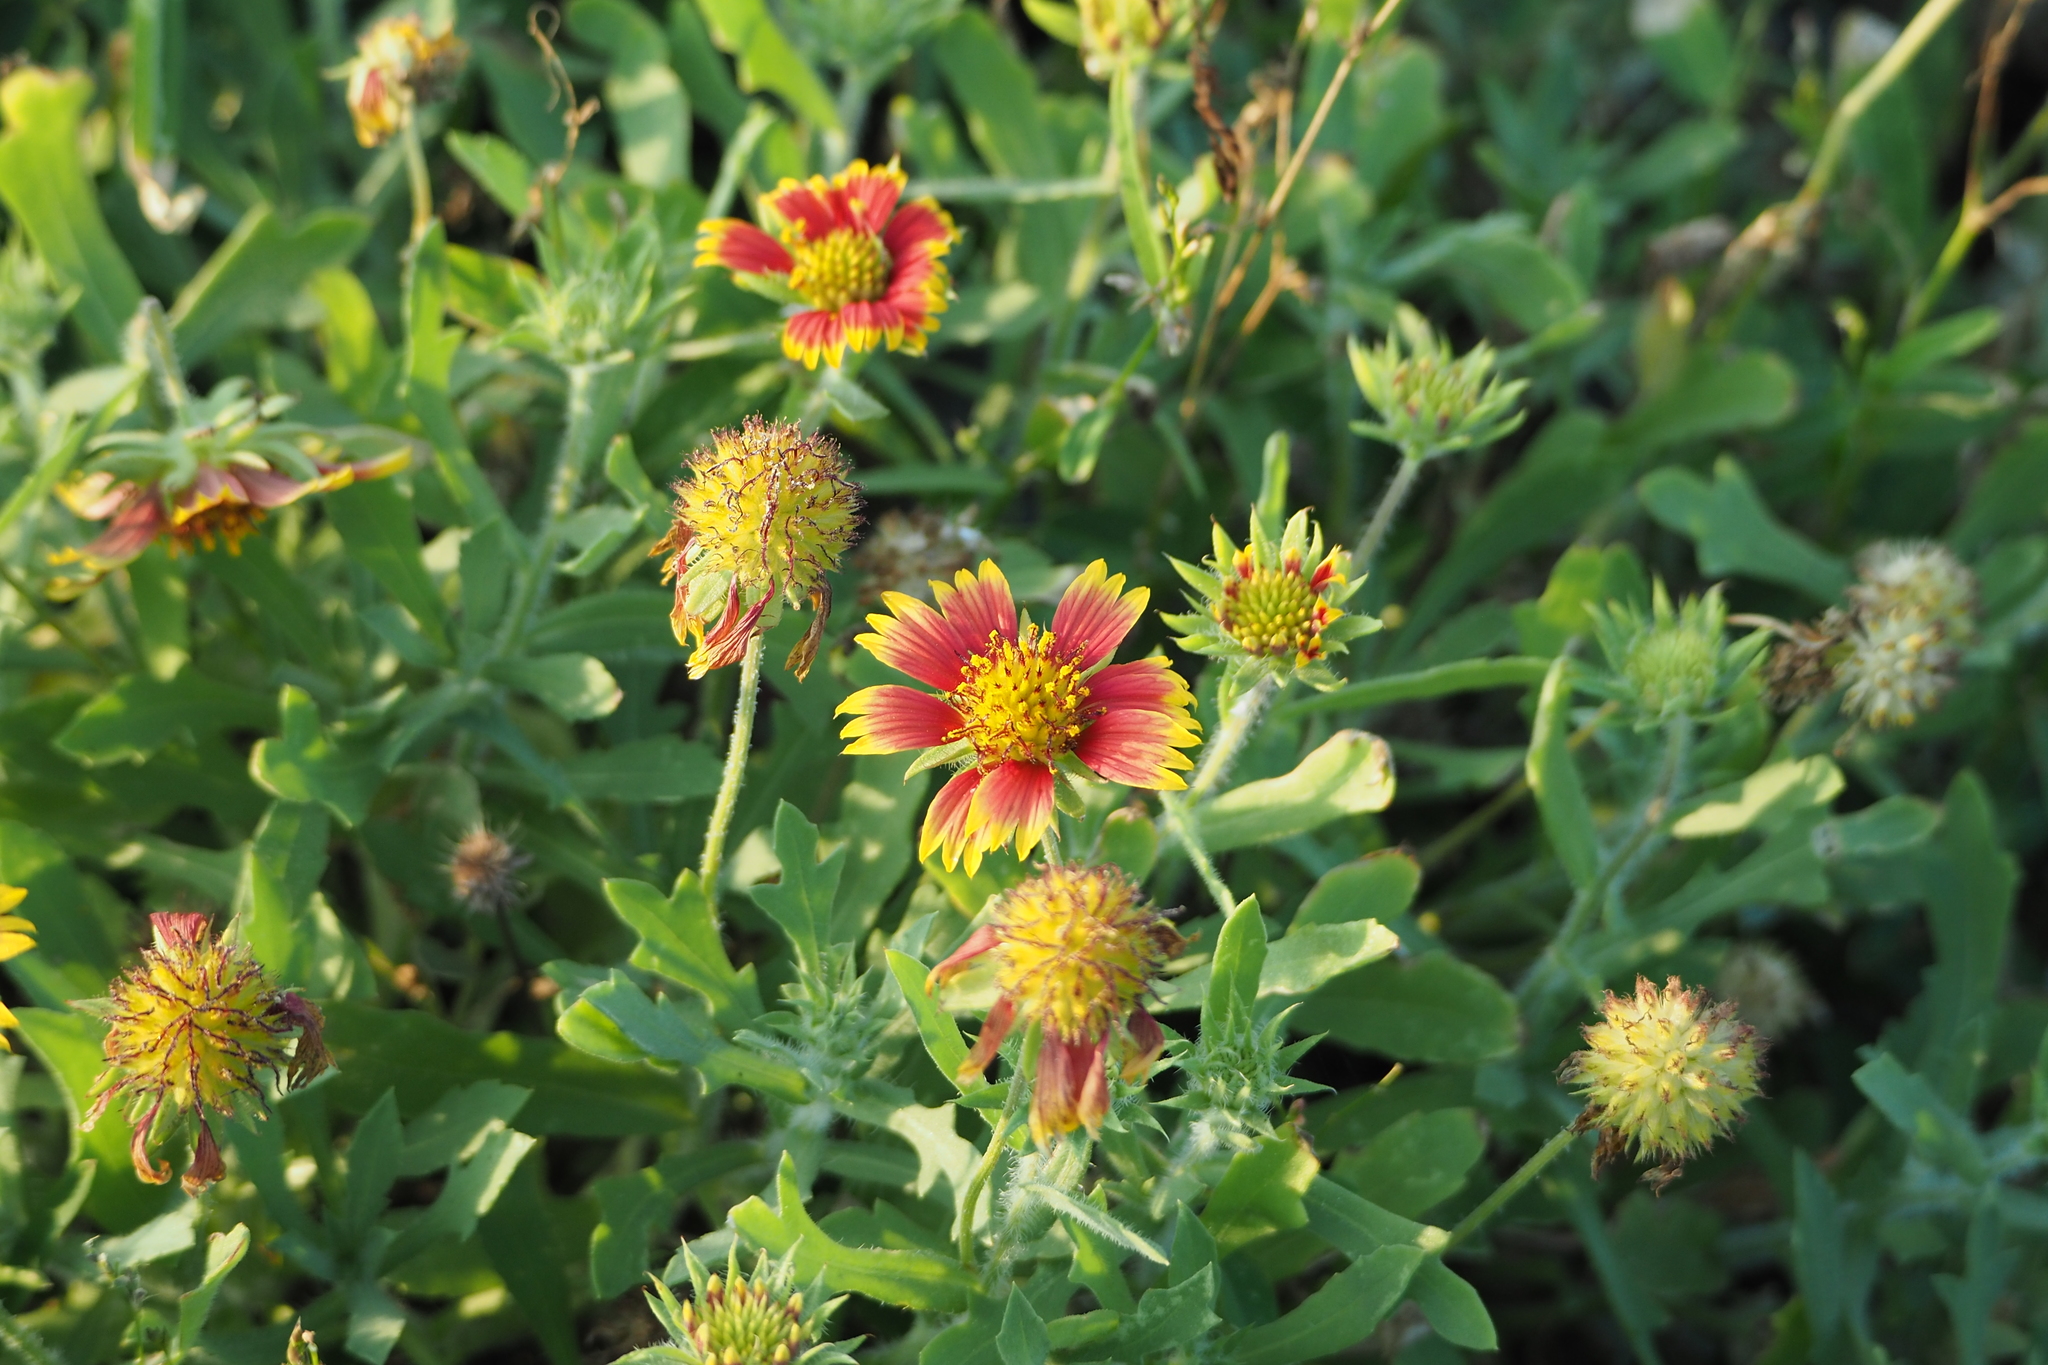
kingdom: Plantae
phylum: Tracheophyta
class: Magnoliopsida
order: Asterales
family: Asteraceae
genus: Gaillardia
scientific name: Gaillardia pulchella
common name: Firewheel
